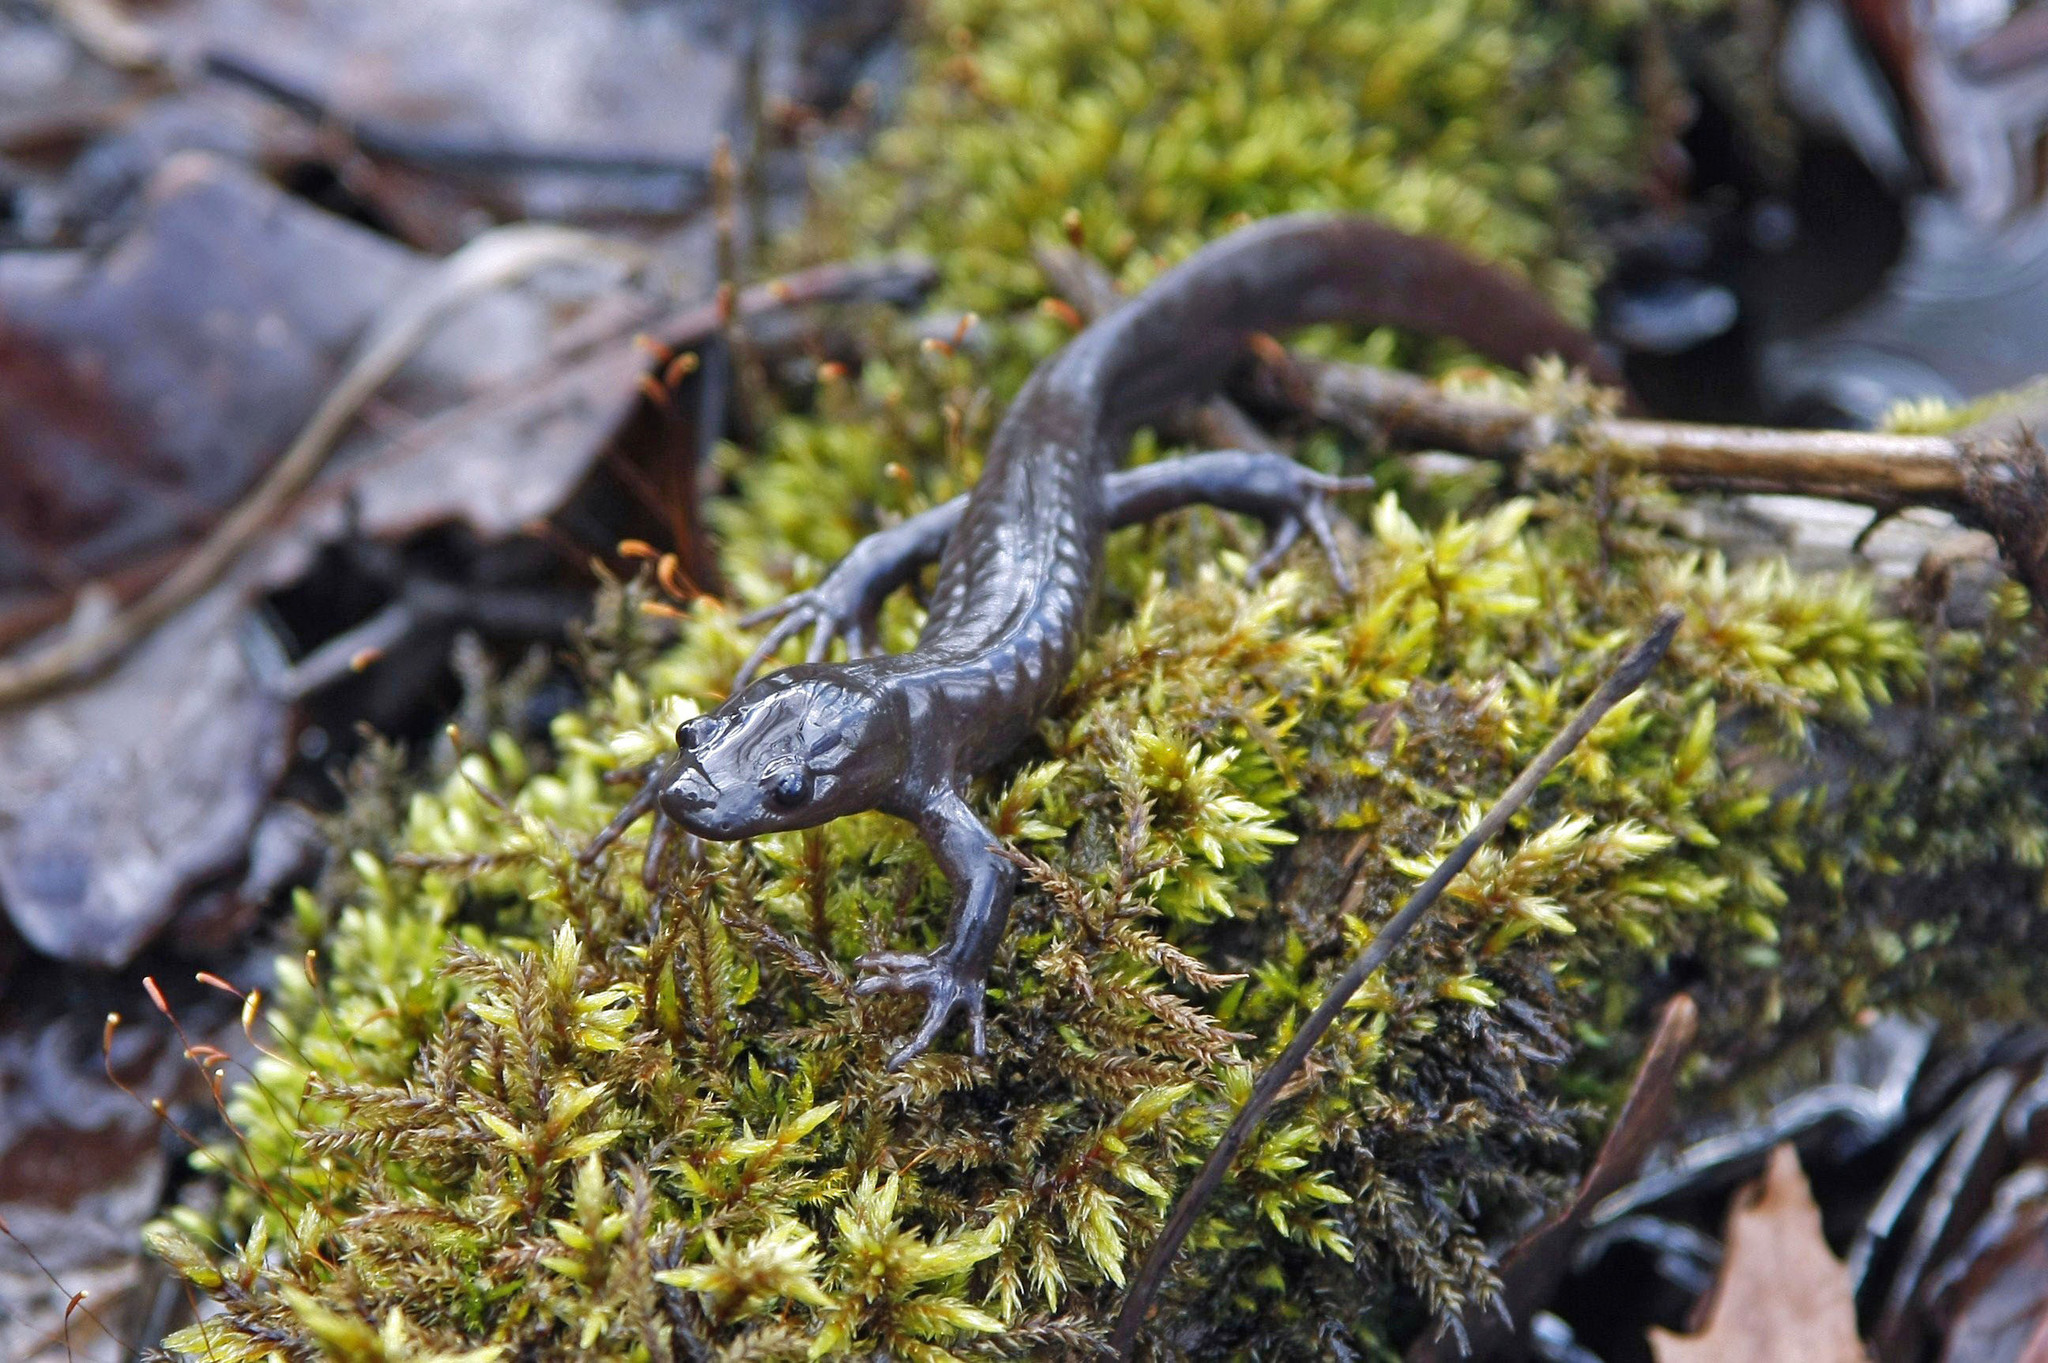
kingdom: Animalia
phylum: Chordata
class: Amphibia
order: Caudata
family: Ambystomatidae
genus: Ambystoma
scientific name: Ambystoma jeffersonianum
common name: Jefferson salamander
